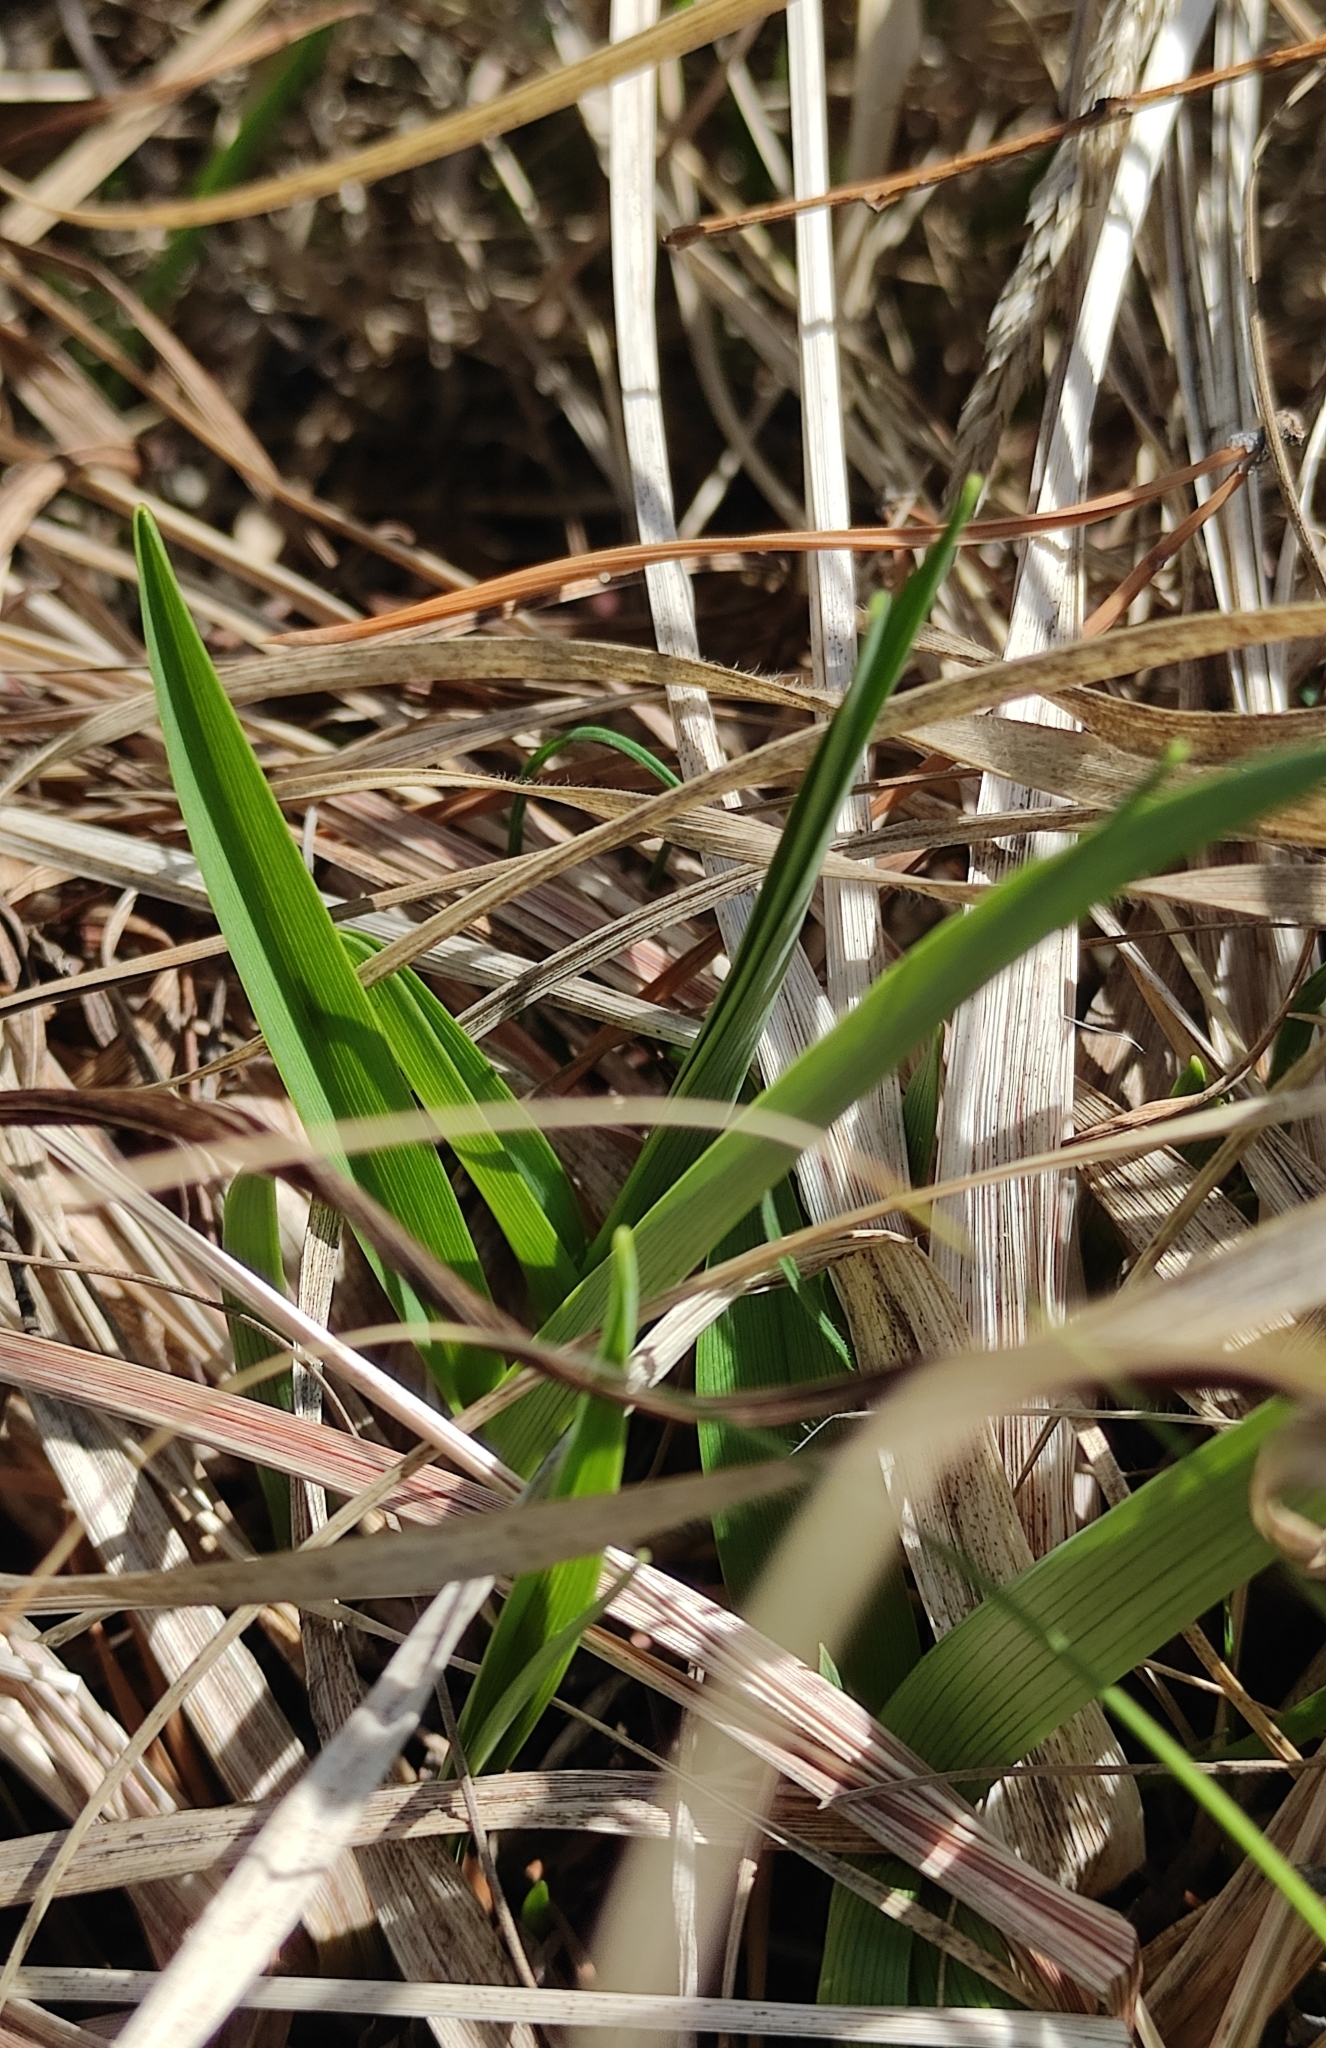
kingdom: Plantae
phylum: Tracheophyta
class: Liliopsida
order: Asparagales
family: Asphodelaceae
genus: Hemerocallis
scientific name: Hemerocallis minor
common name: Small daylily
